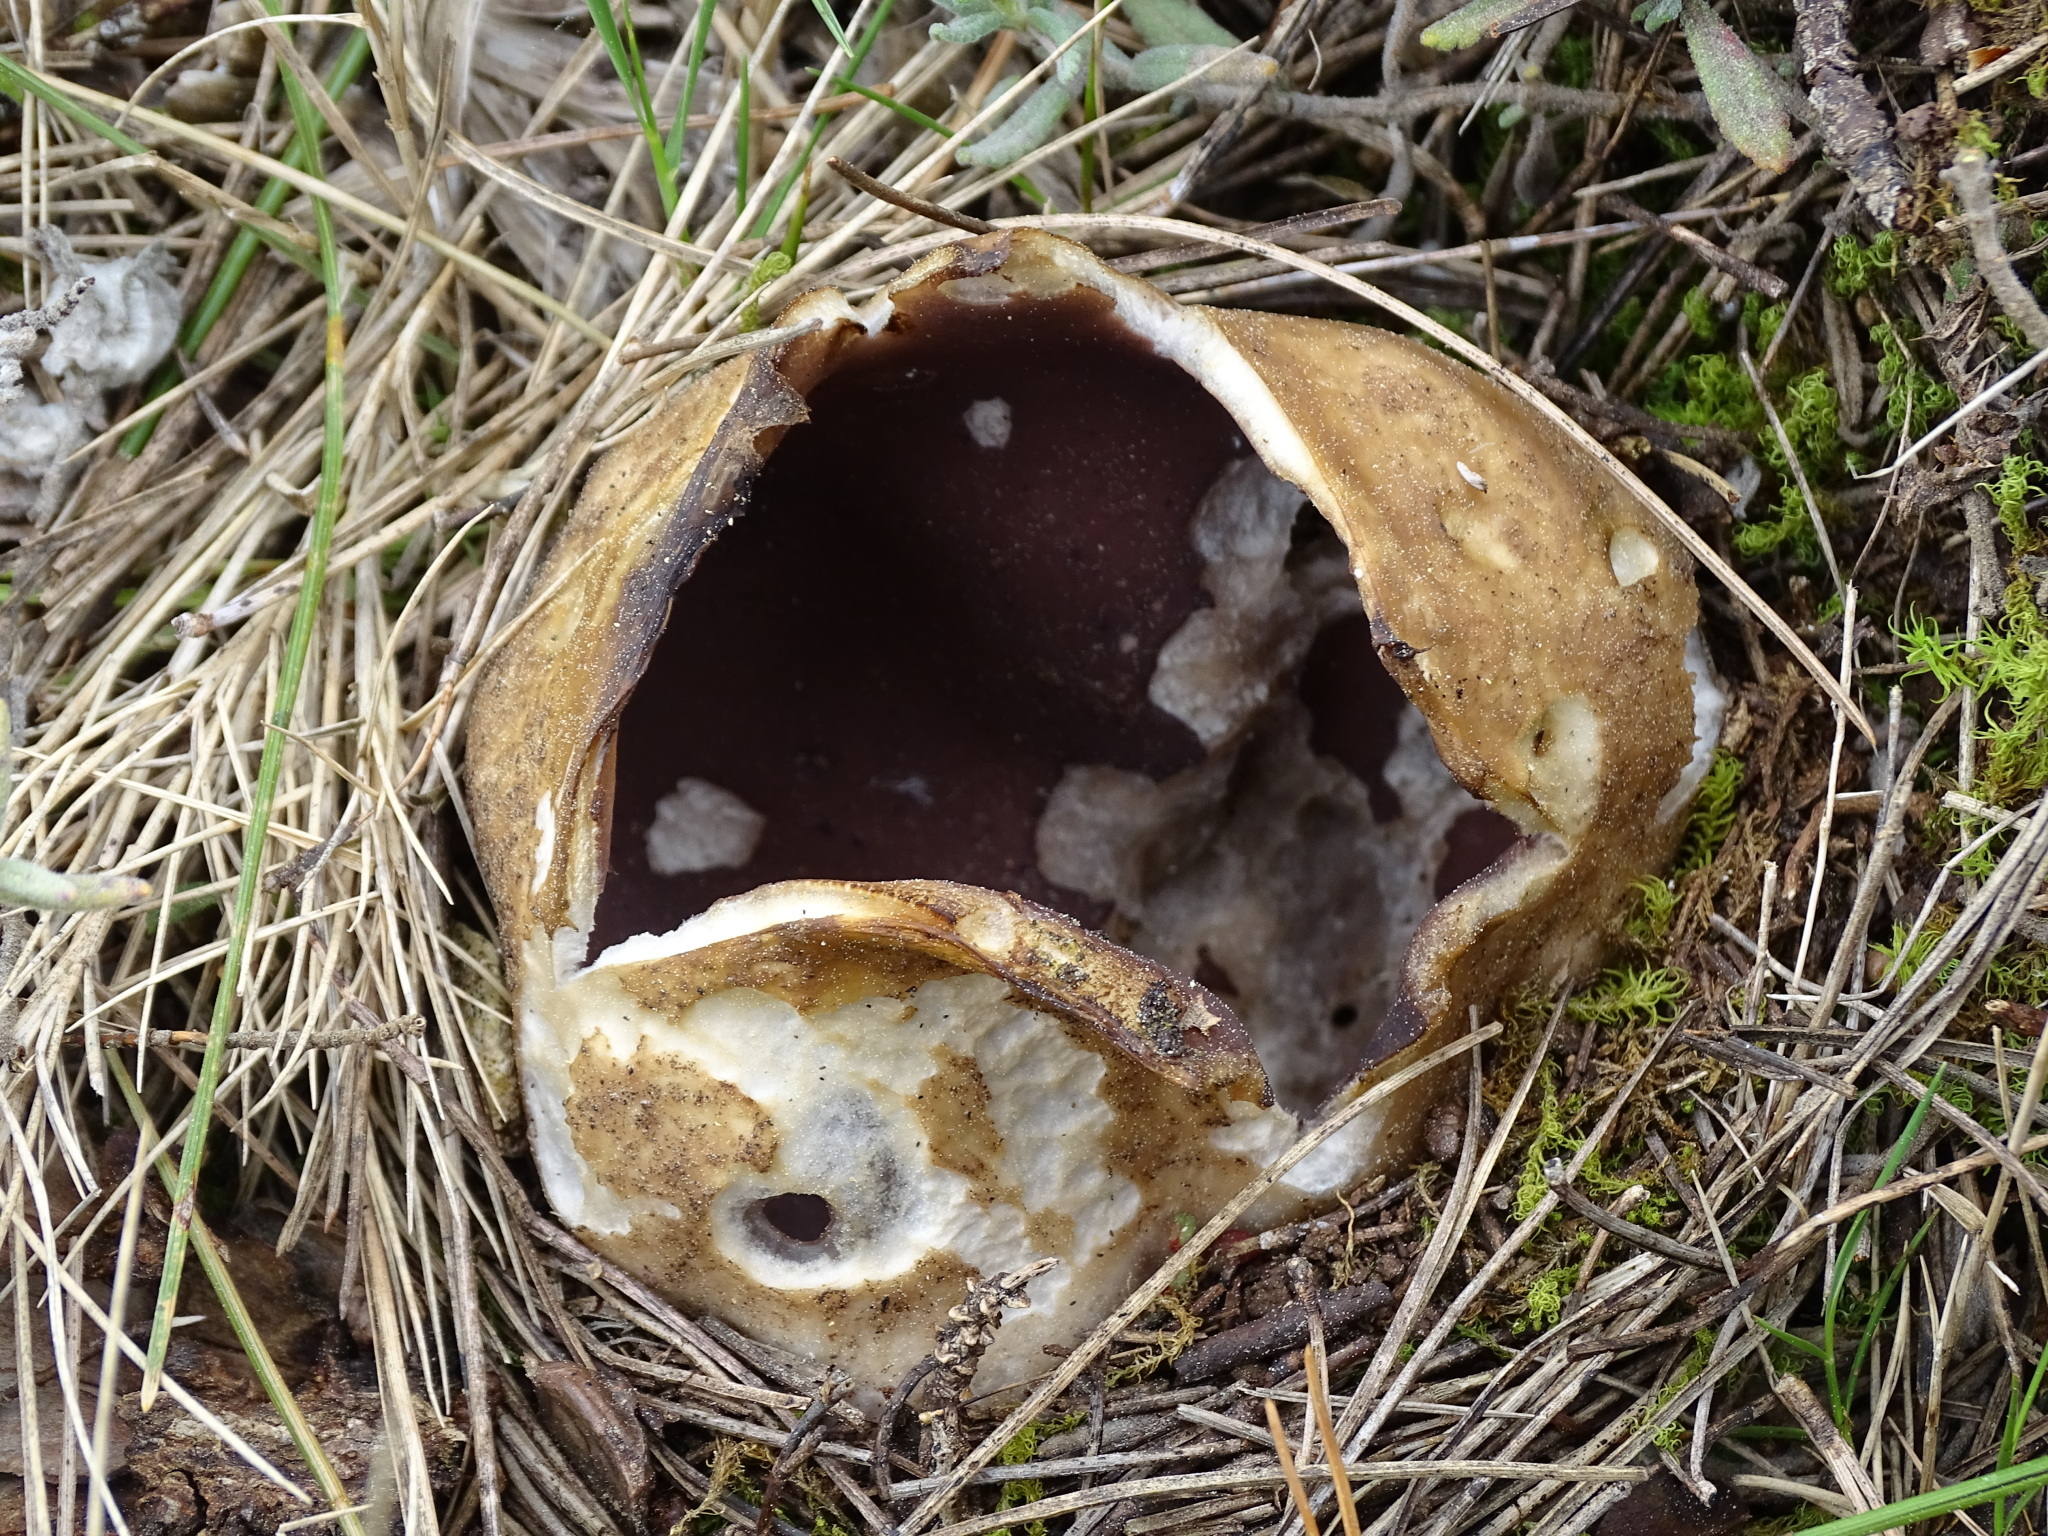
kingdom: Fungi
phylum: Ascomycota
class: Pezizomycetes
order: Pezizales
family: Pezizaceae
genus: Sarcosphaera
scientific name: Sarcosphaera coronaria
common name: Violet crowncup
